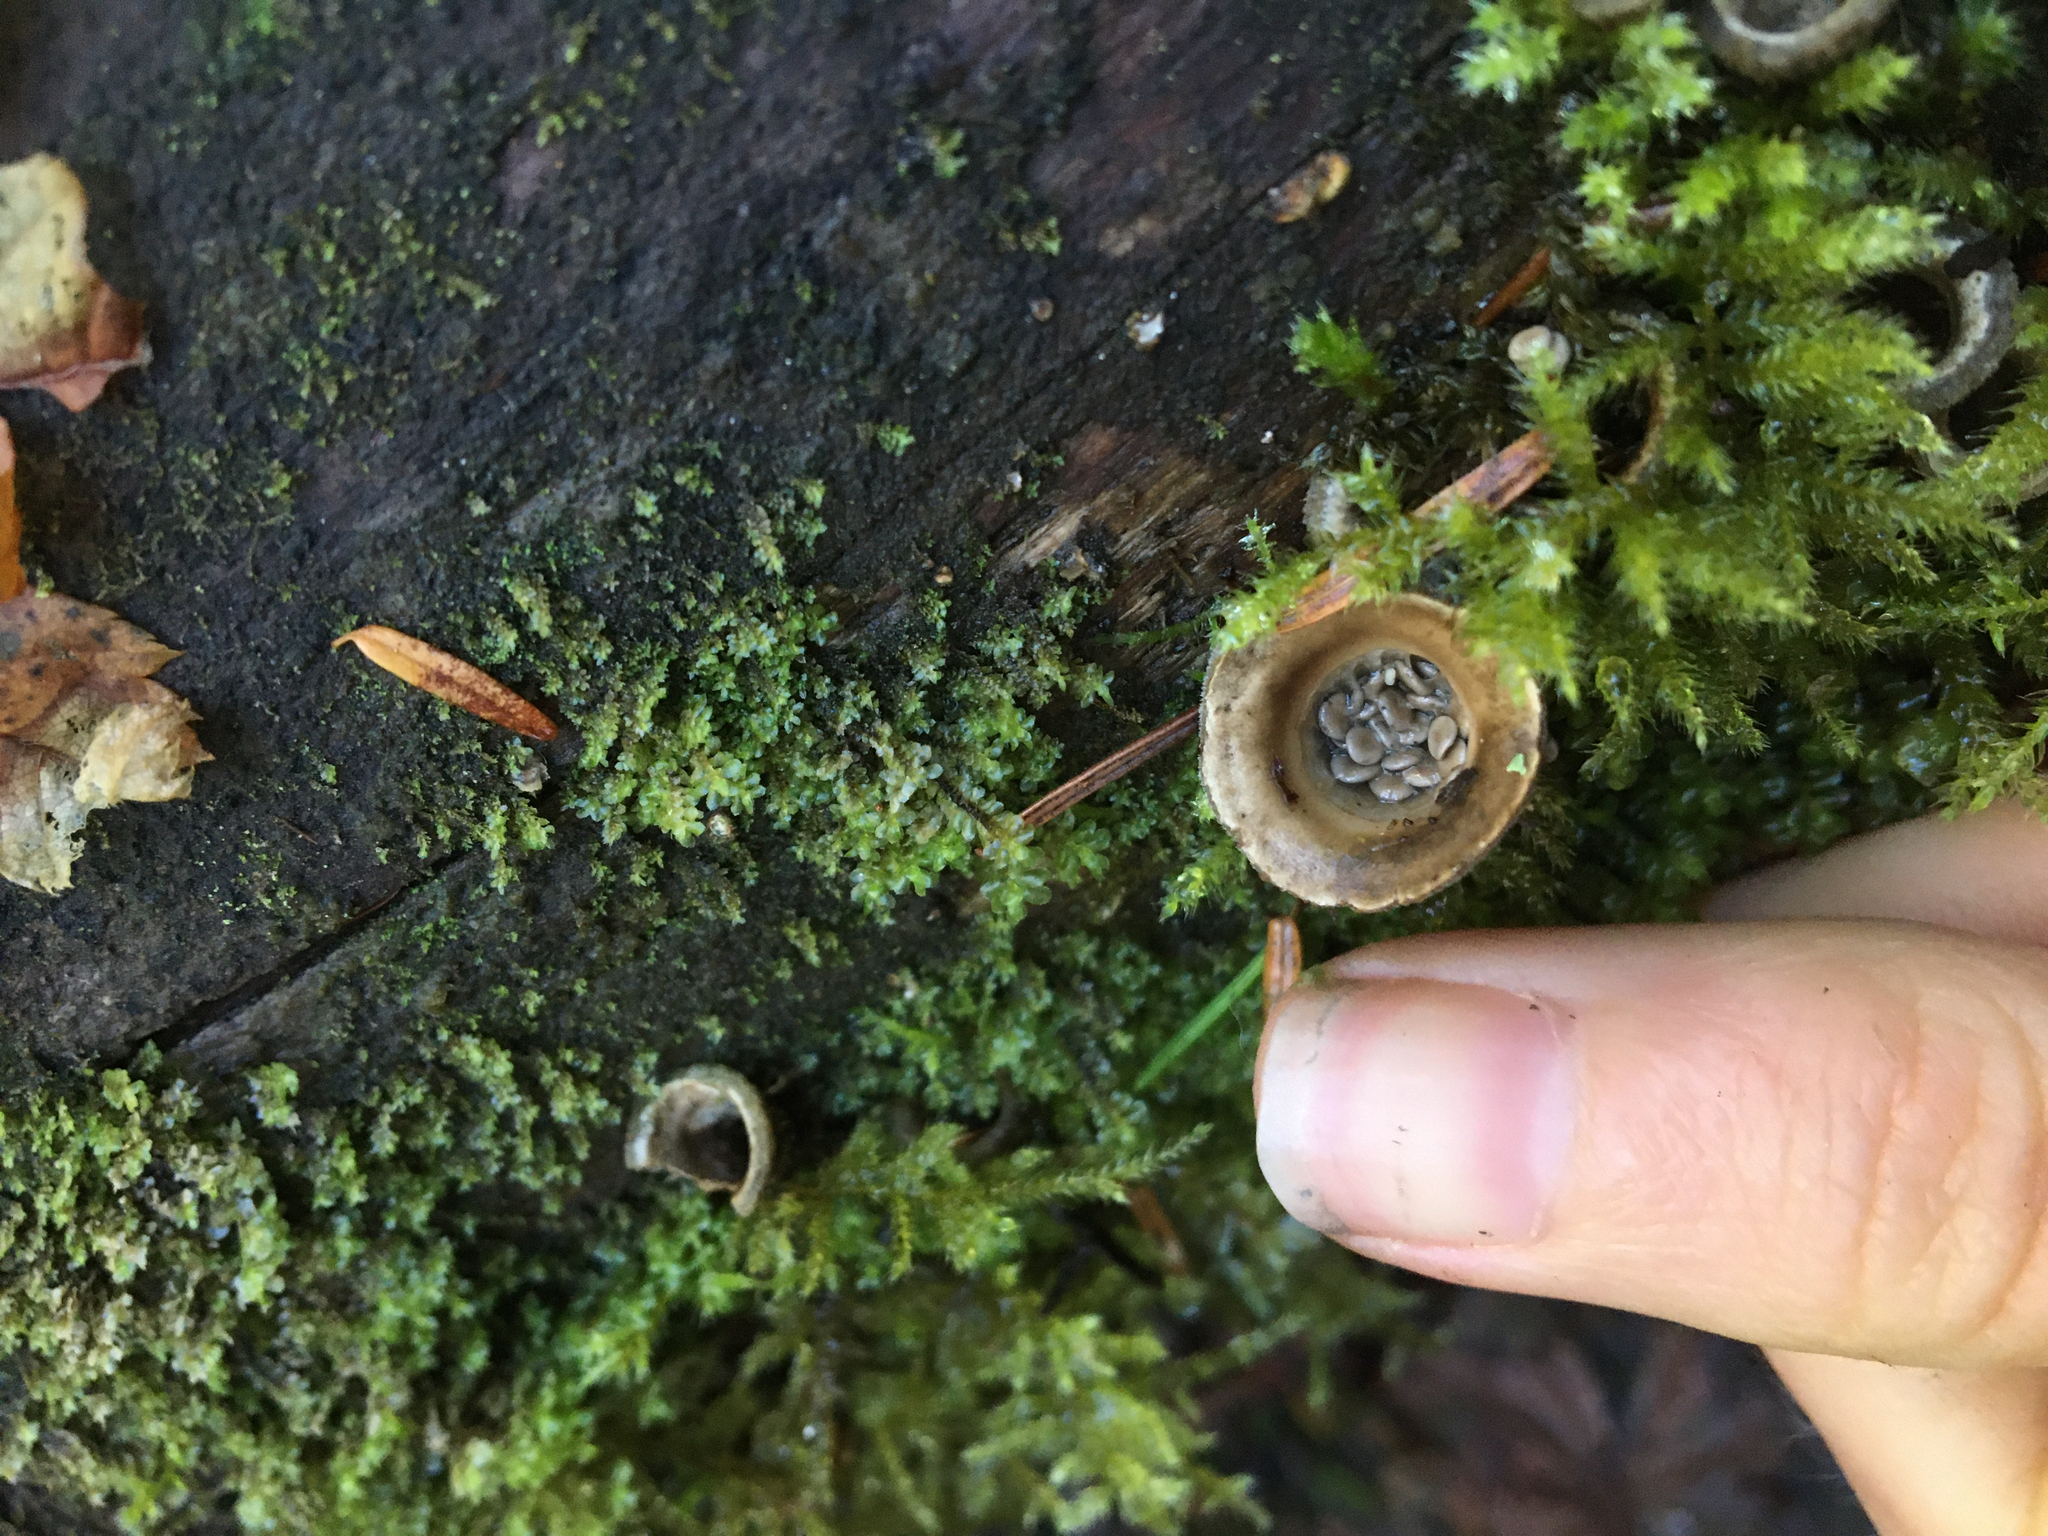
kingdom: Fungi
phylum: Basidiomycota
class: Agaricomycetes
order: Agaricales
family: Agaricaceae
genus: Nidula
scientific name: Nidula candida
